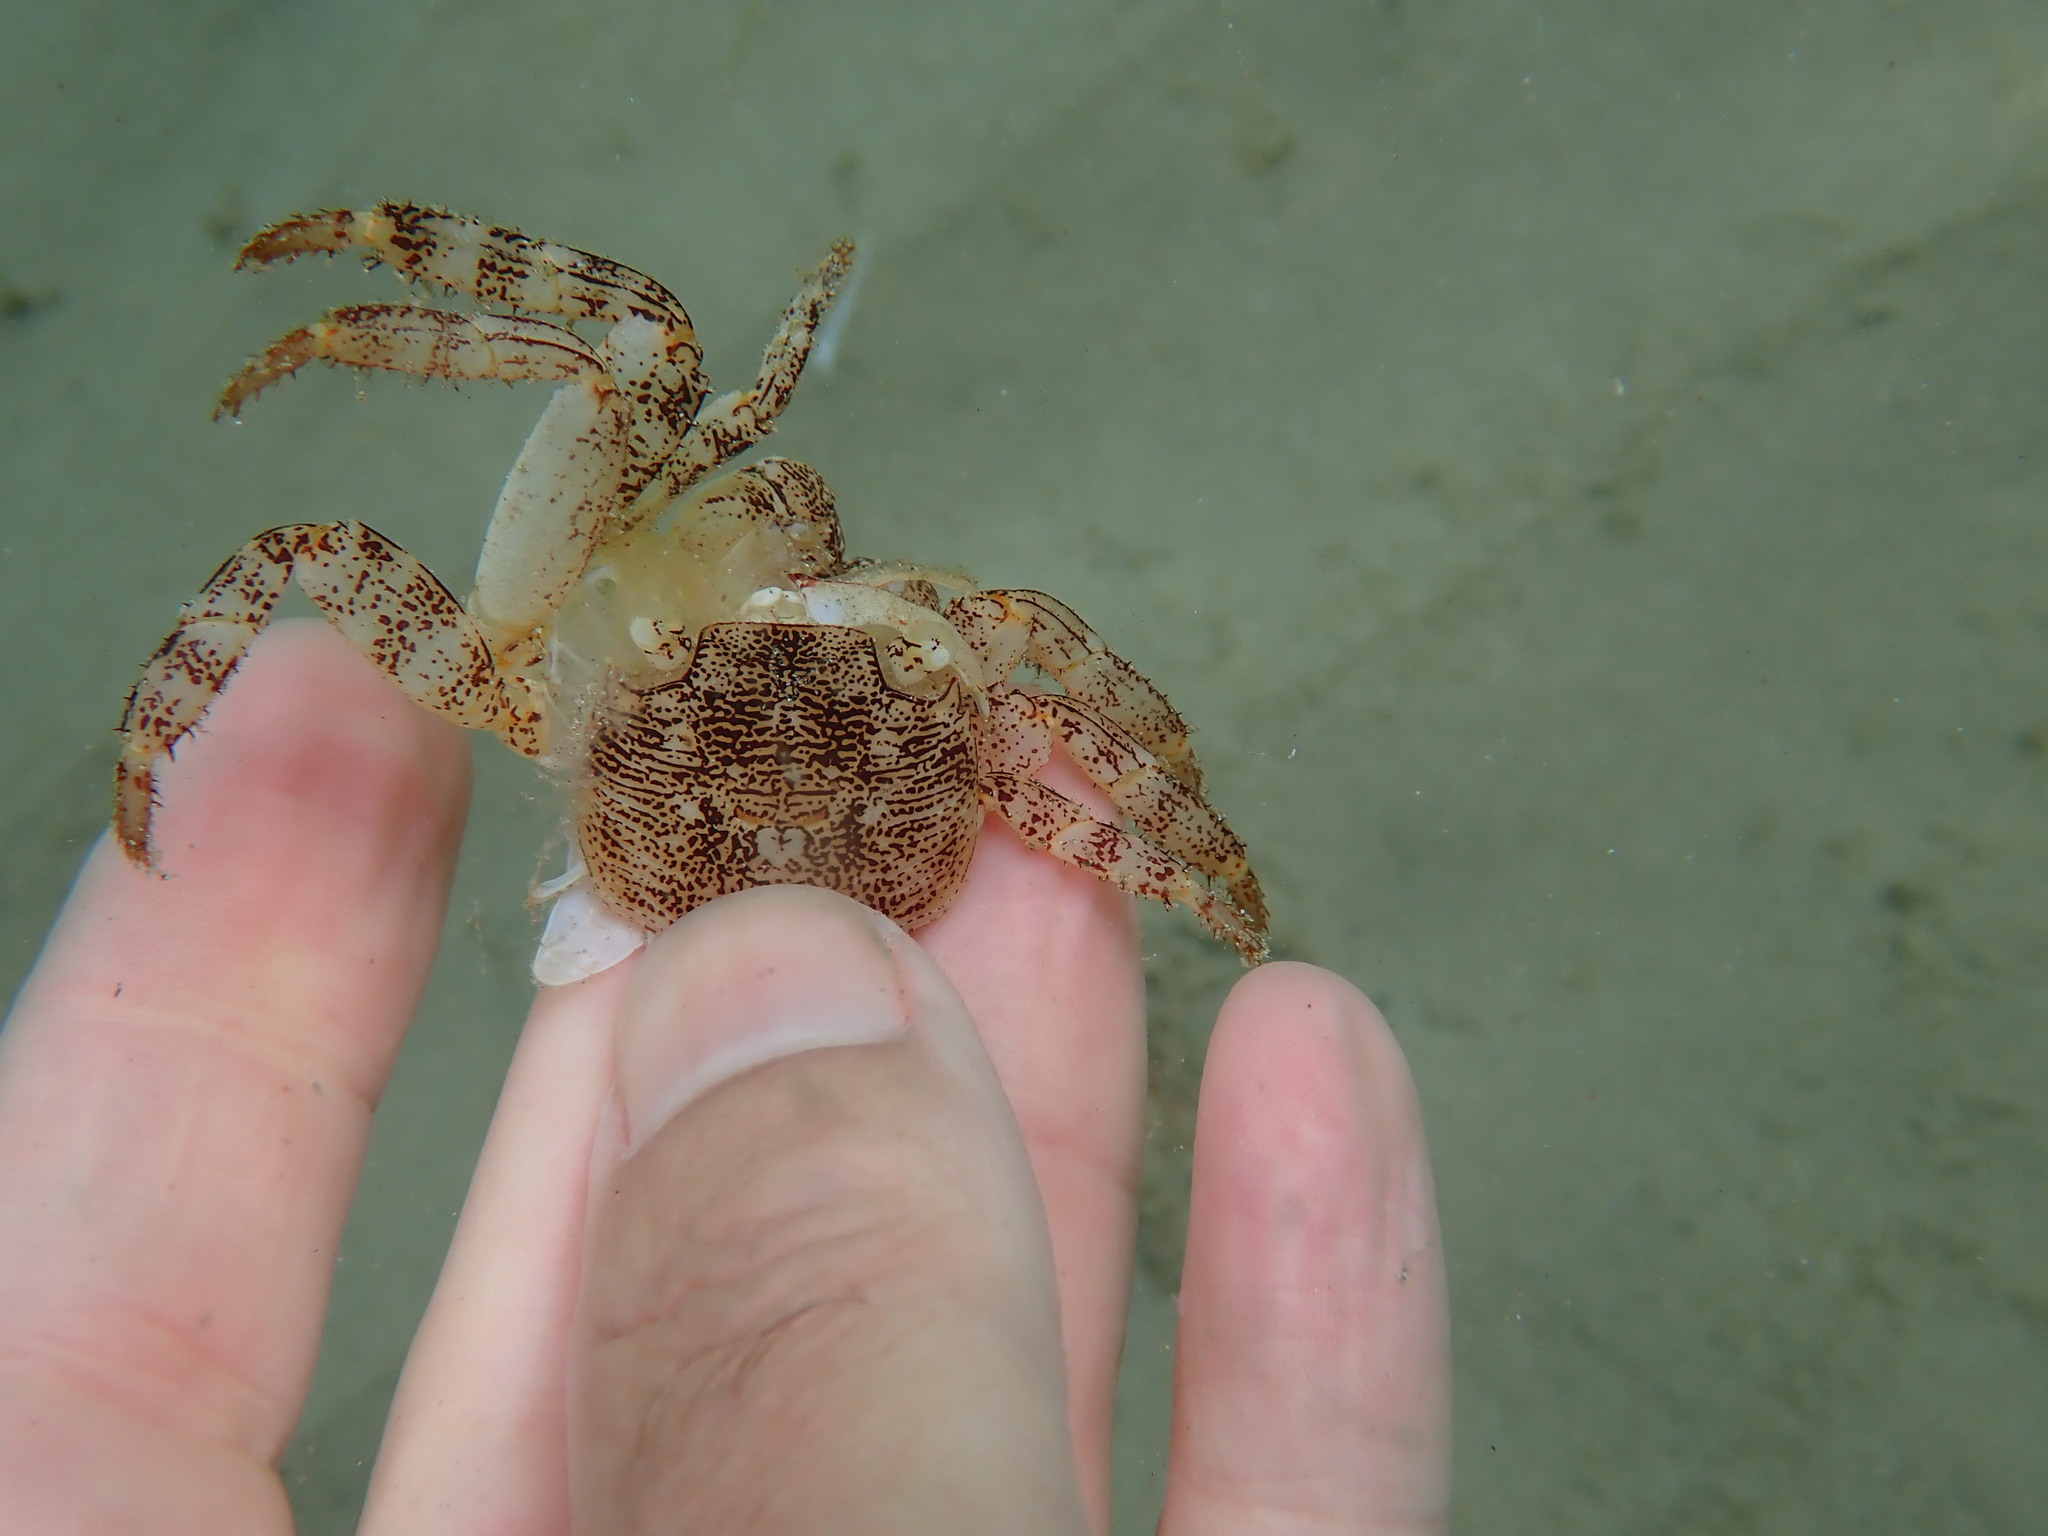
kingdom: Animalia
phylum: Arthropoda
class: Malacostraca
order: Decapoda
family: Grapsidae
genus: Leptograpsus
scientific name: Leptograpsus variegatus
